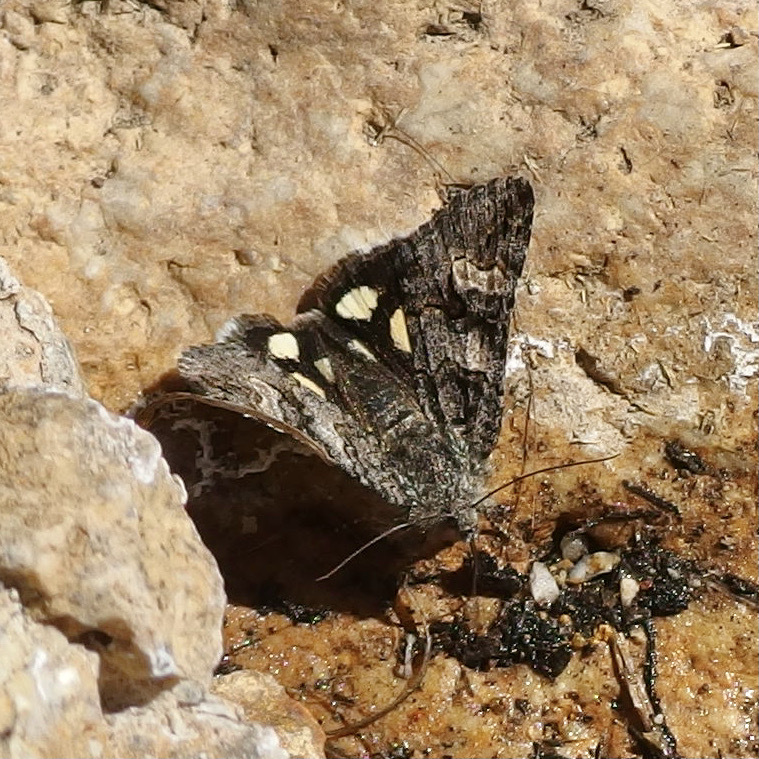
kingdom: Animalia
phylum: Arthropoda
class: Insecta
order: Lepidoptera
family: Erebidae
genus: Litocala
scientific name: Litocala sexsignata
